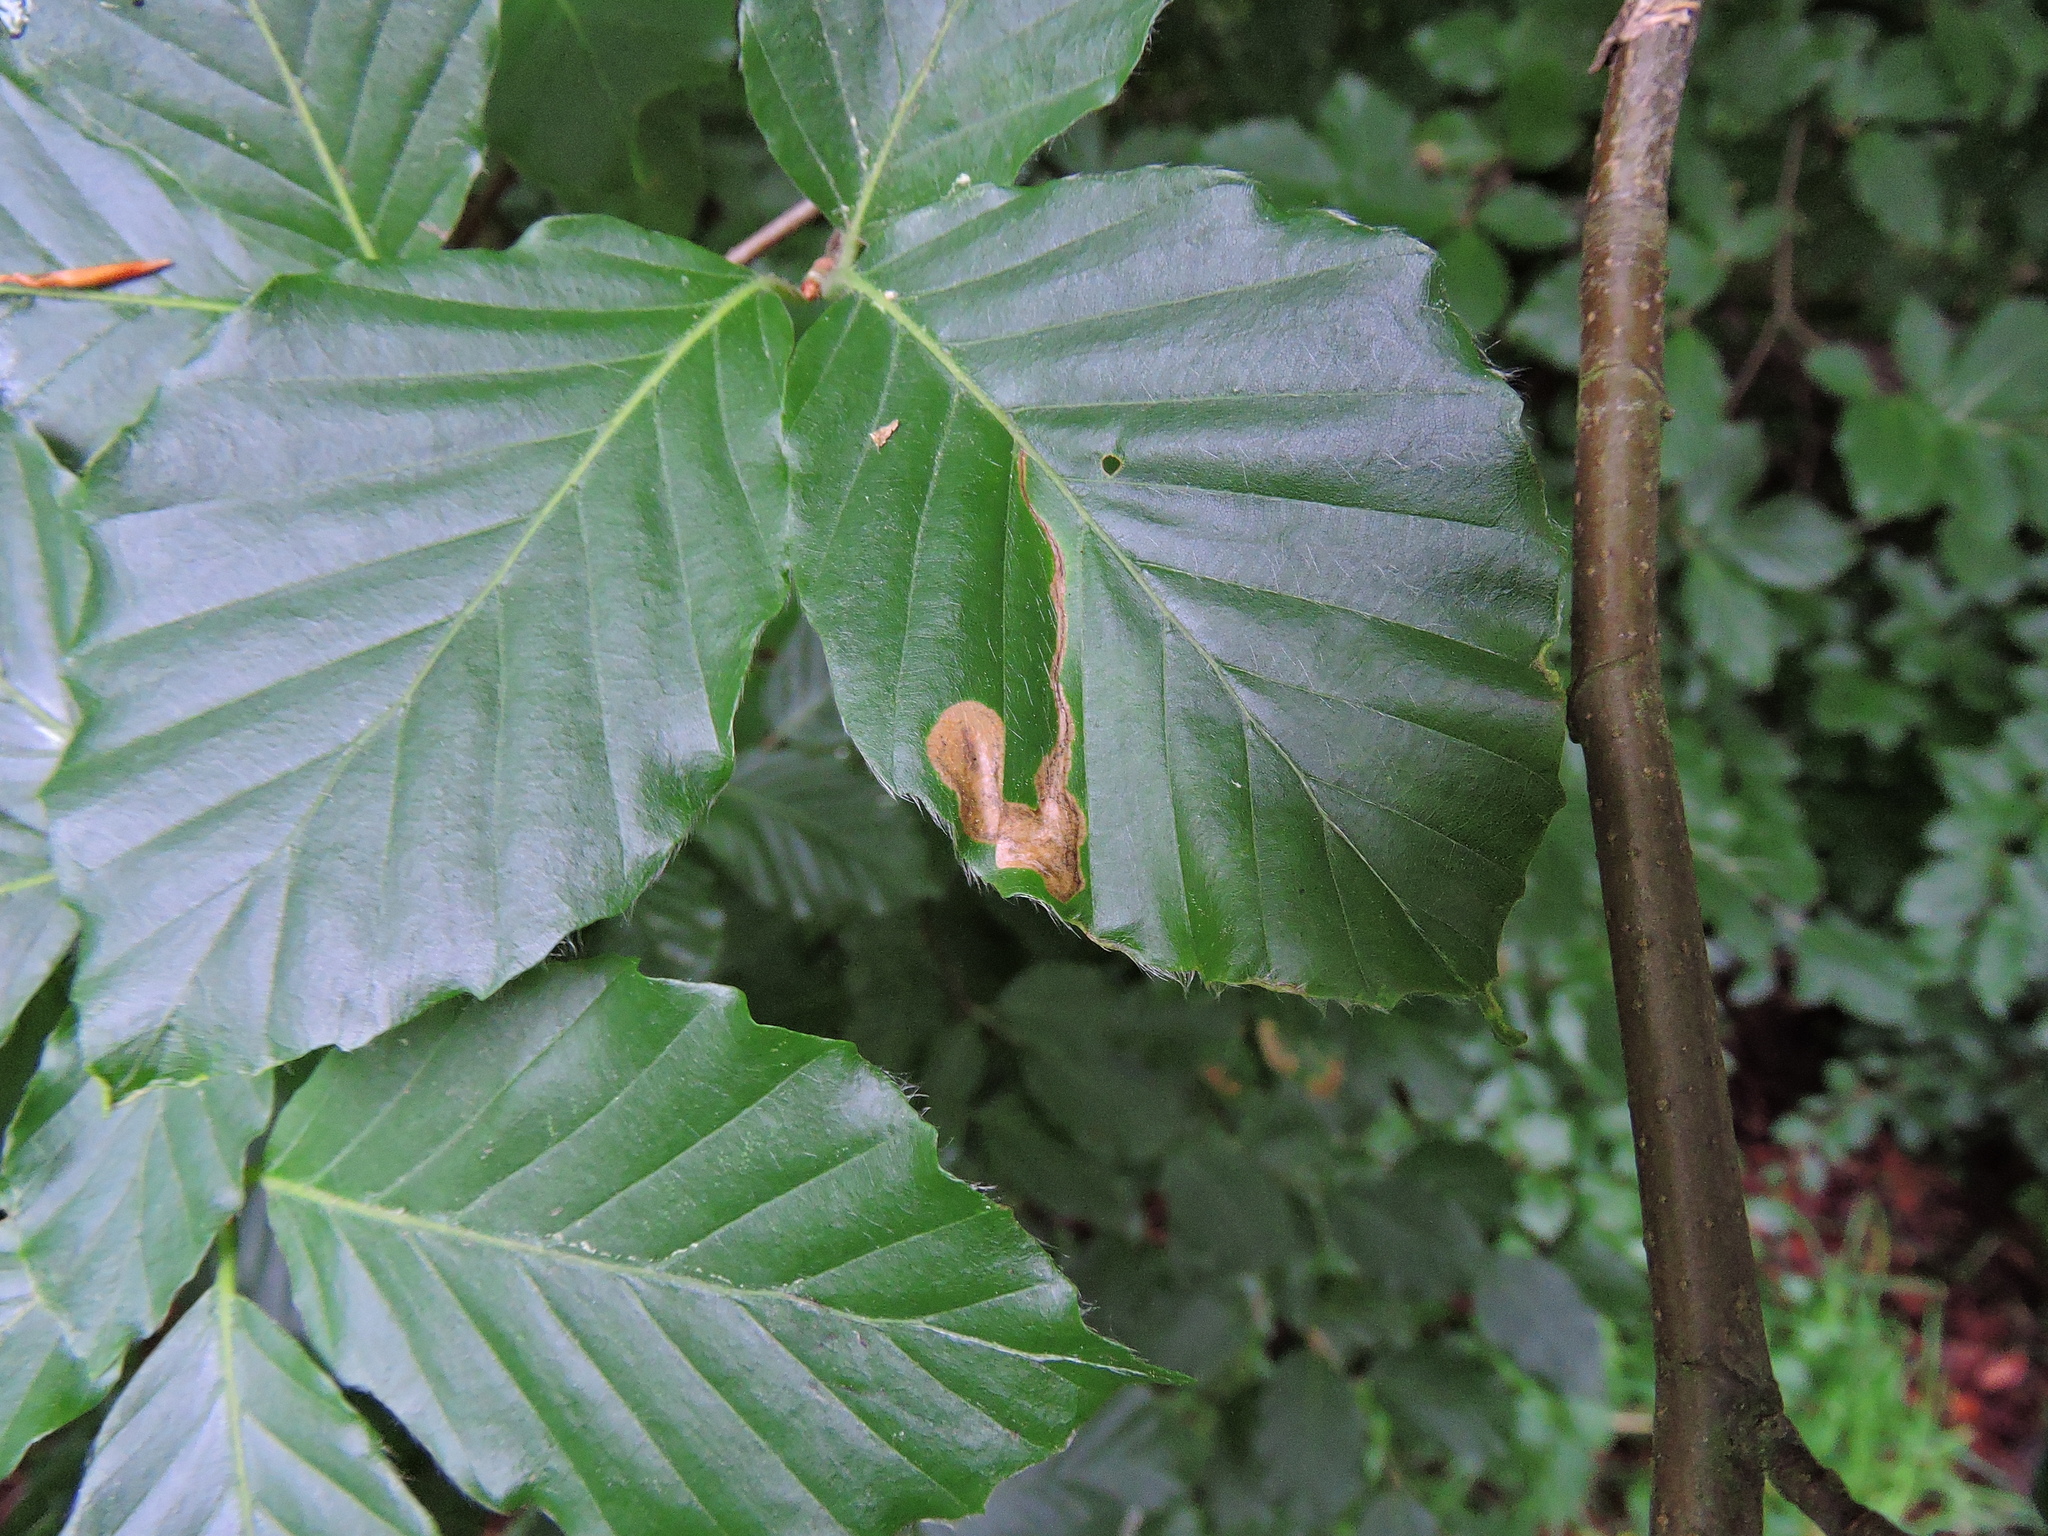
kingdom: Animalia
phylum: Arthropoda
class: Insecta
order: Coleoptera
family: Curculionidae
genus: Orchestes
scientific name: Orchestes fagi
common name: Beech leaf miner
